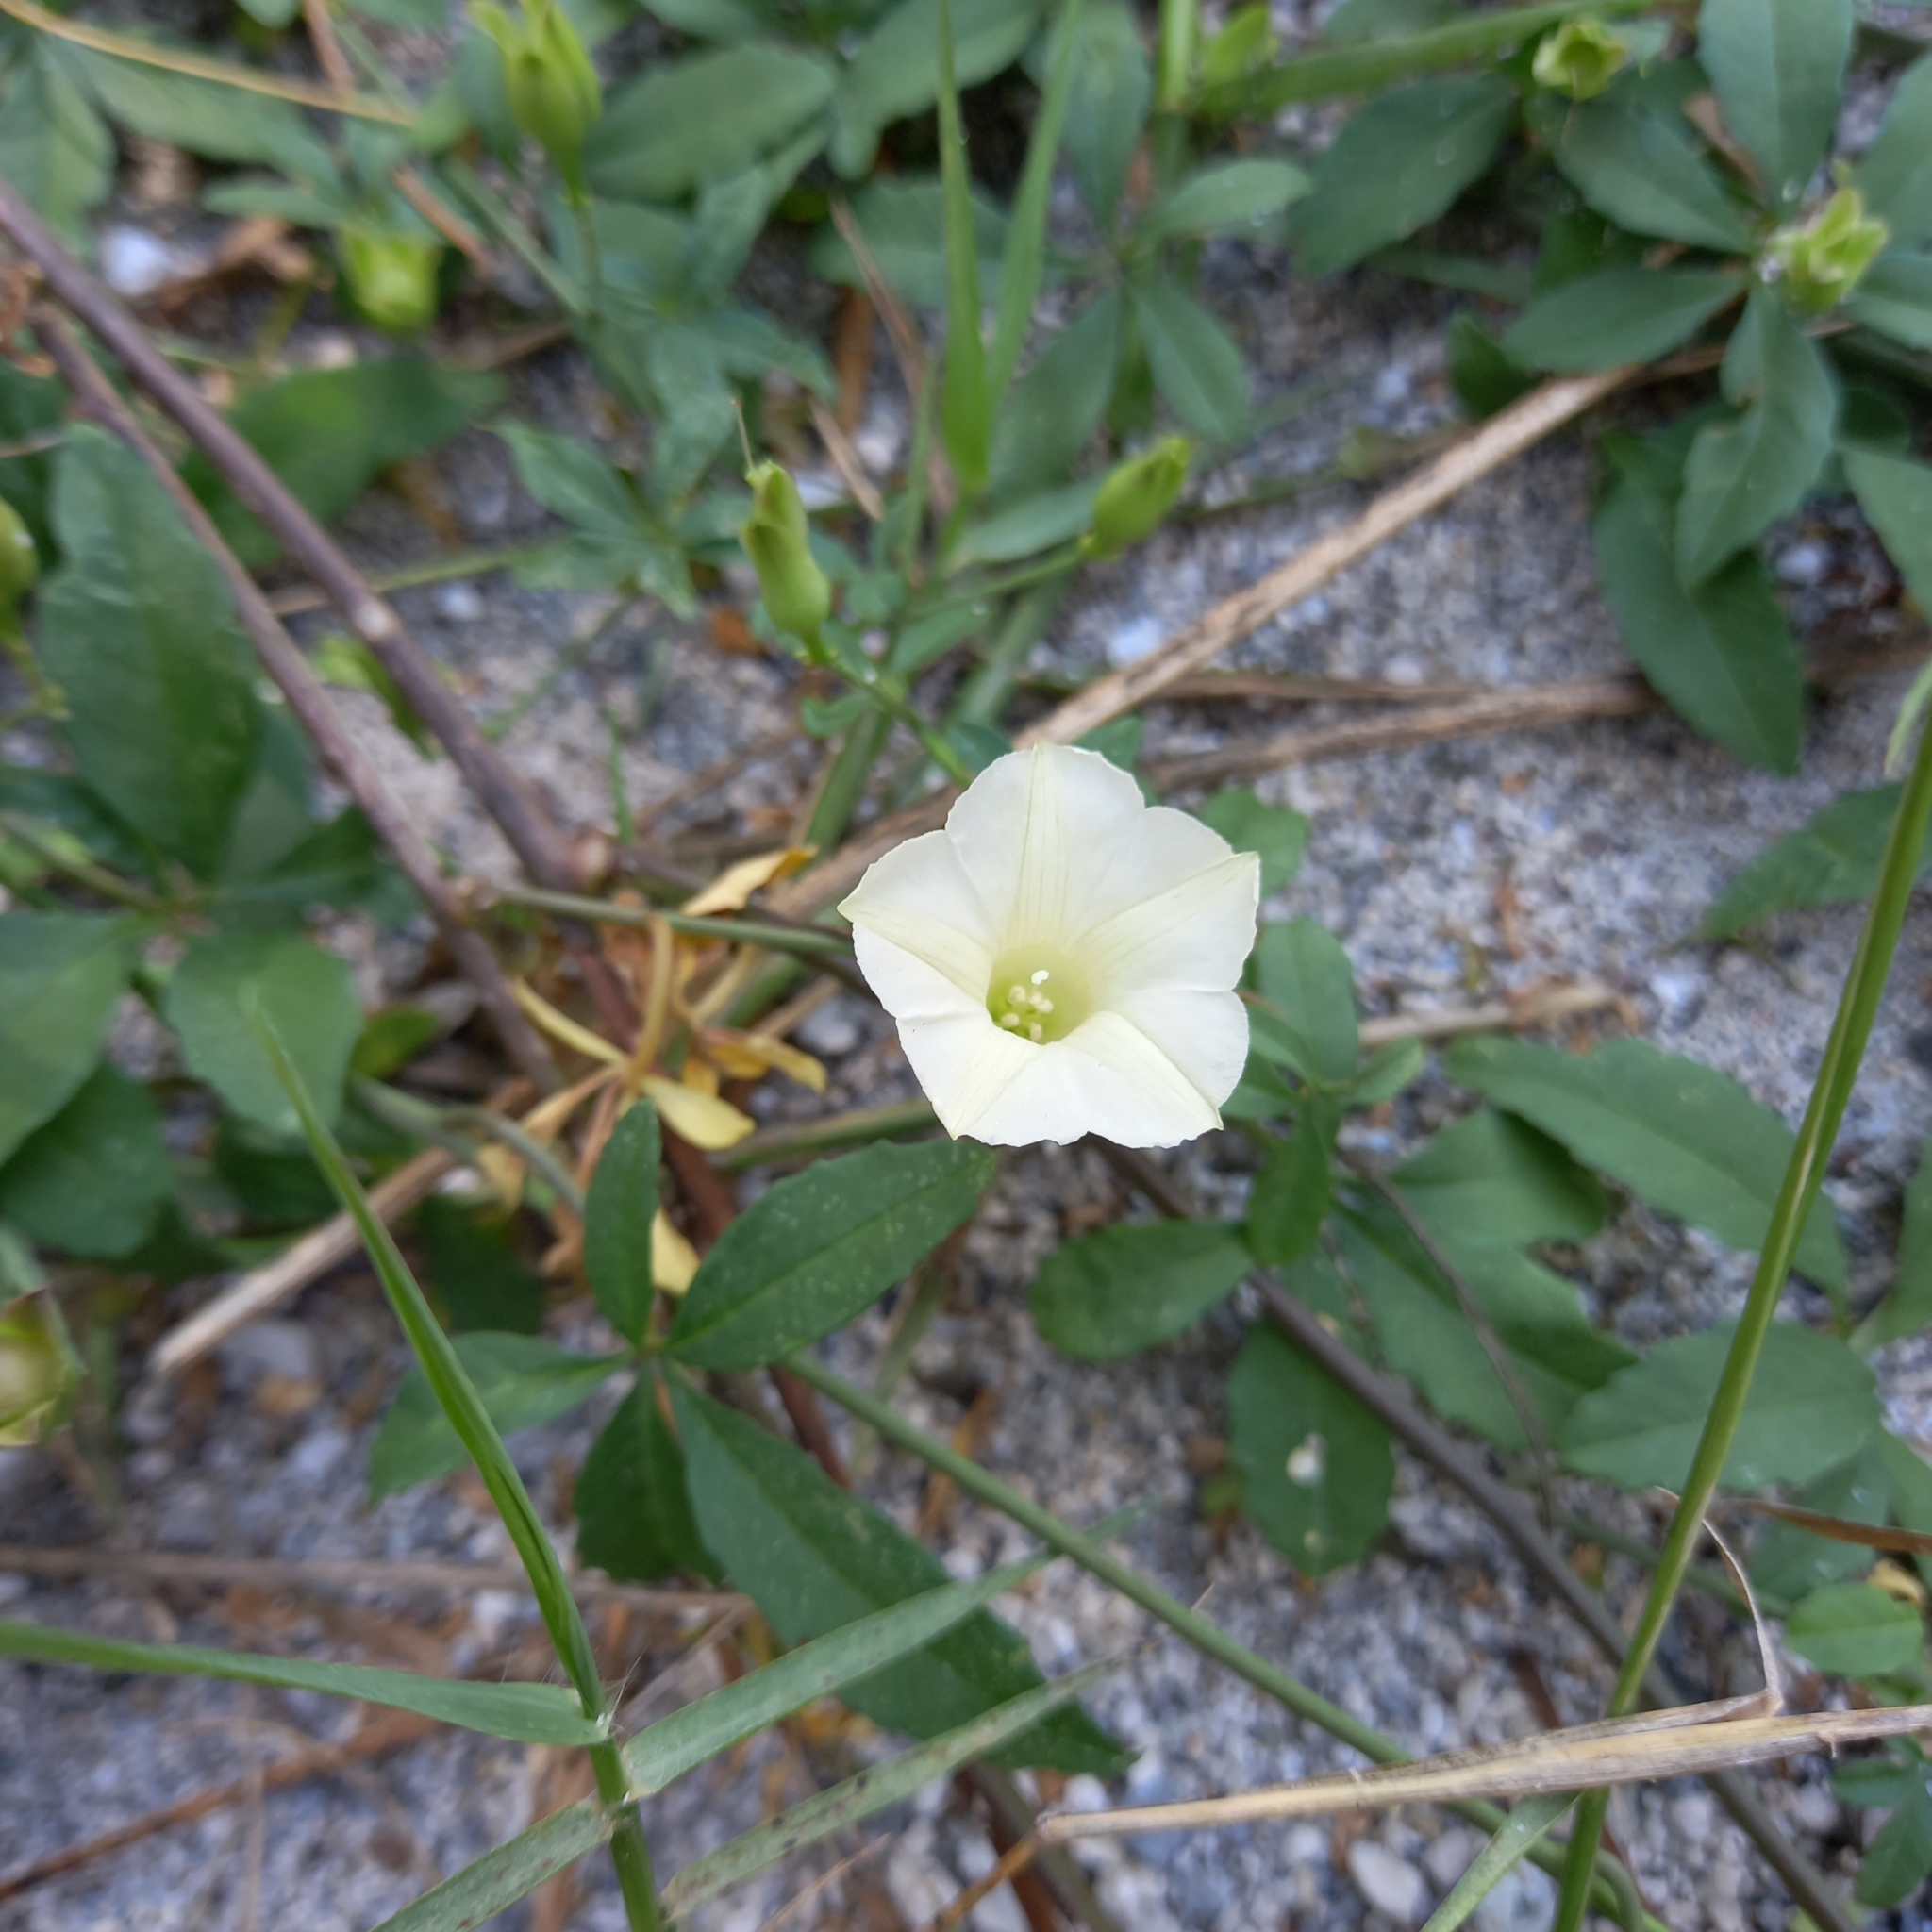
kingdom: Plantae
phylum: Tracheophyta
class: Magnoliopsida
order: Solanales
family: Convolvulaceae
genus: Distimake
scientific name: Distimake quinquefolius
